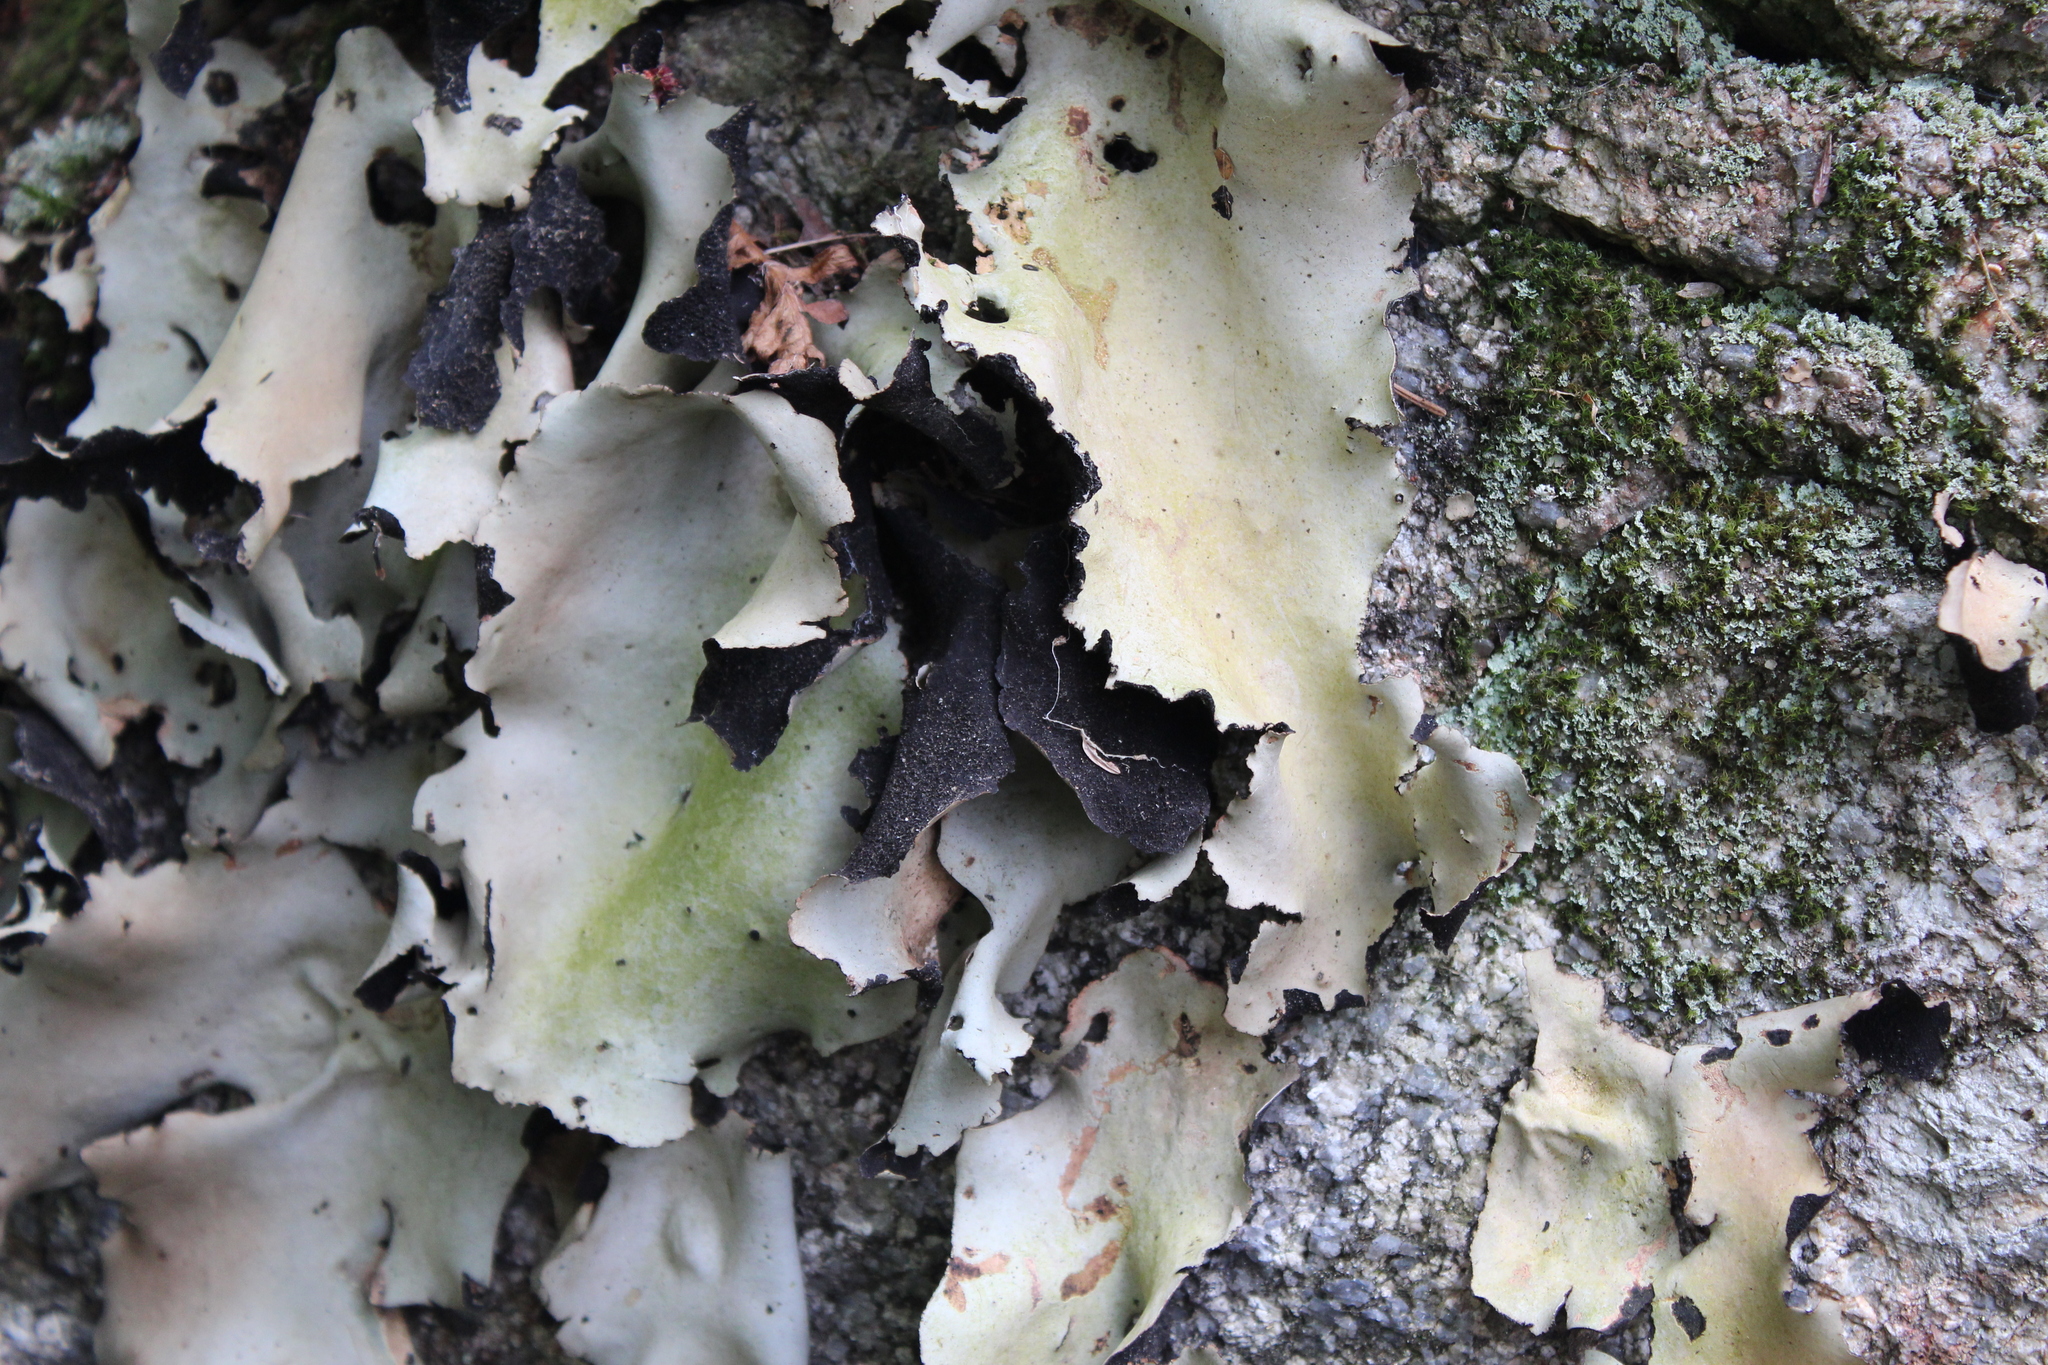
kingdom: Fungi
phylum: Ascomycota
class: Lecanoromycetes
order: Umbilicariales
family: Umbilicariaceae
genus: Umbilicaria
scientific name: Umbilicaria mammulata
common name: Smooth rock tripe
